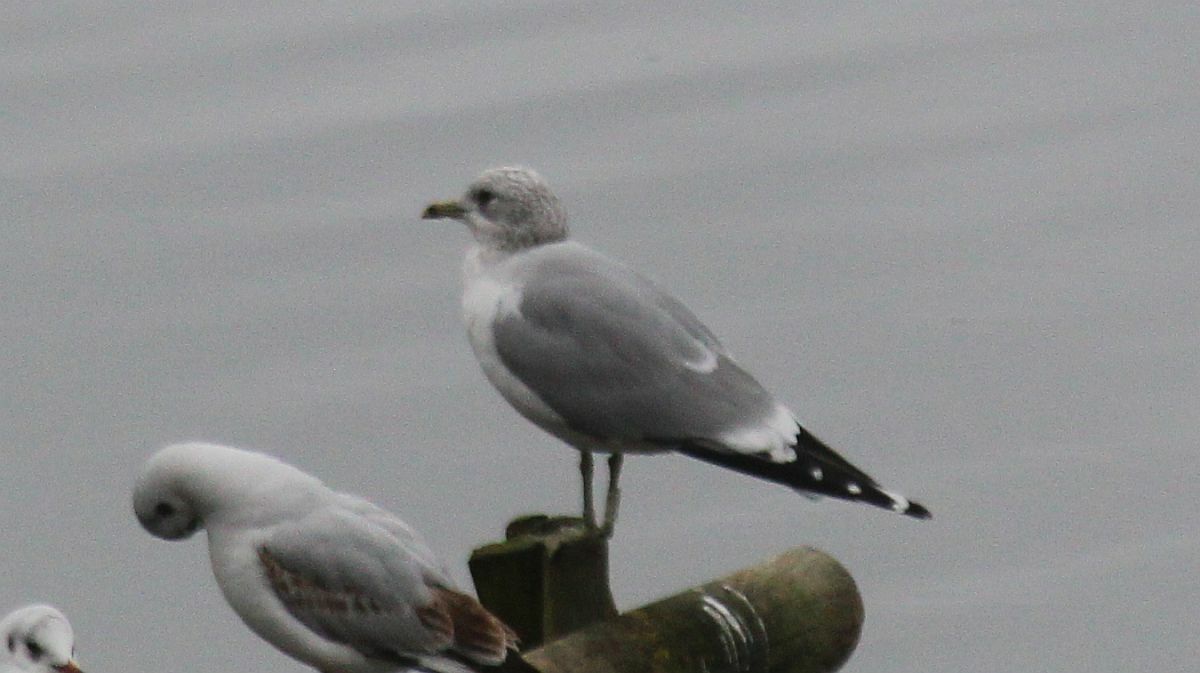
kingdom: Animalia
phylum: Chordata
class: Aves
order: Charadriiformes
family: Laridae
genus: Larus
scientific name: Larus canus
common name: Mew gull
